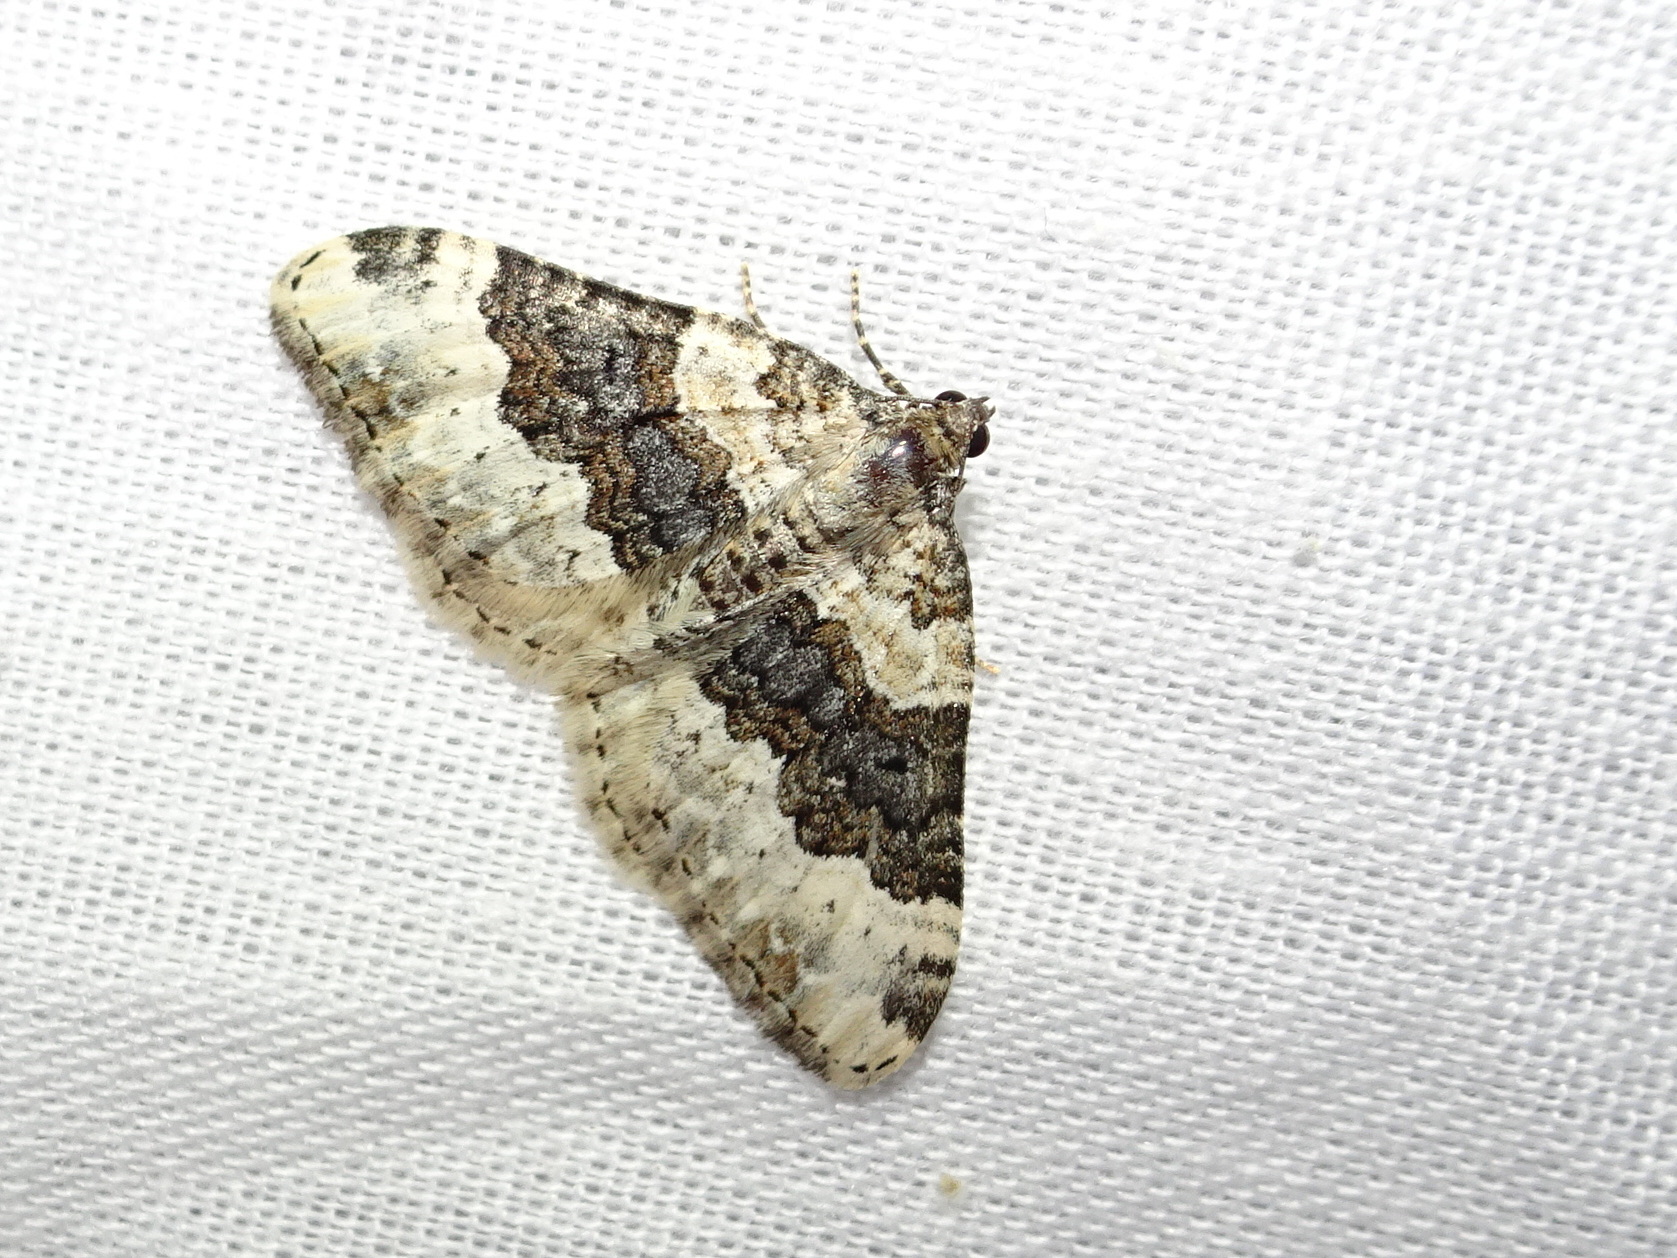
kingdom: Animalia
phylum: Arthropoda
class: Insecta
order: Lepidoptera
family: Geometridae
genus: Epirrhoe
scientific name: Epirrhoe galiata
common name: Galium carpet
